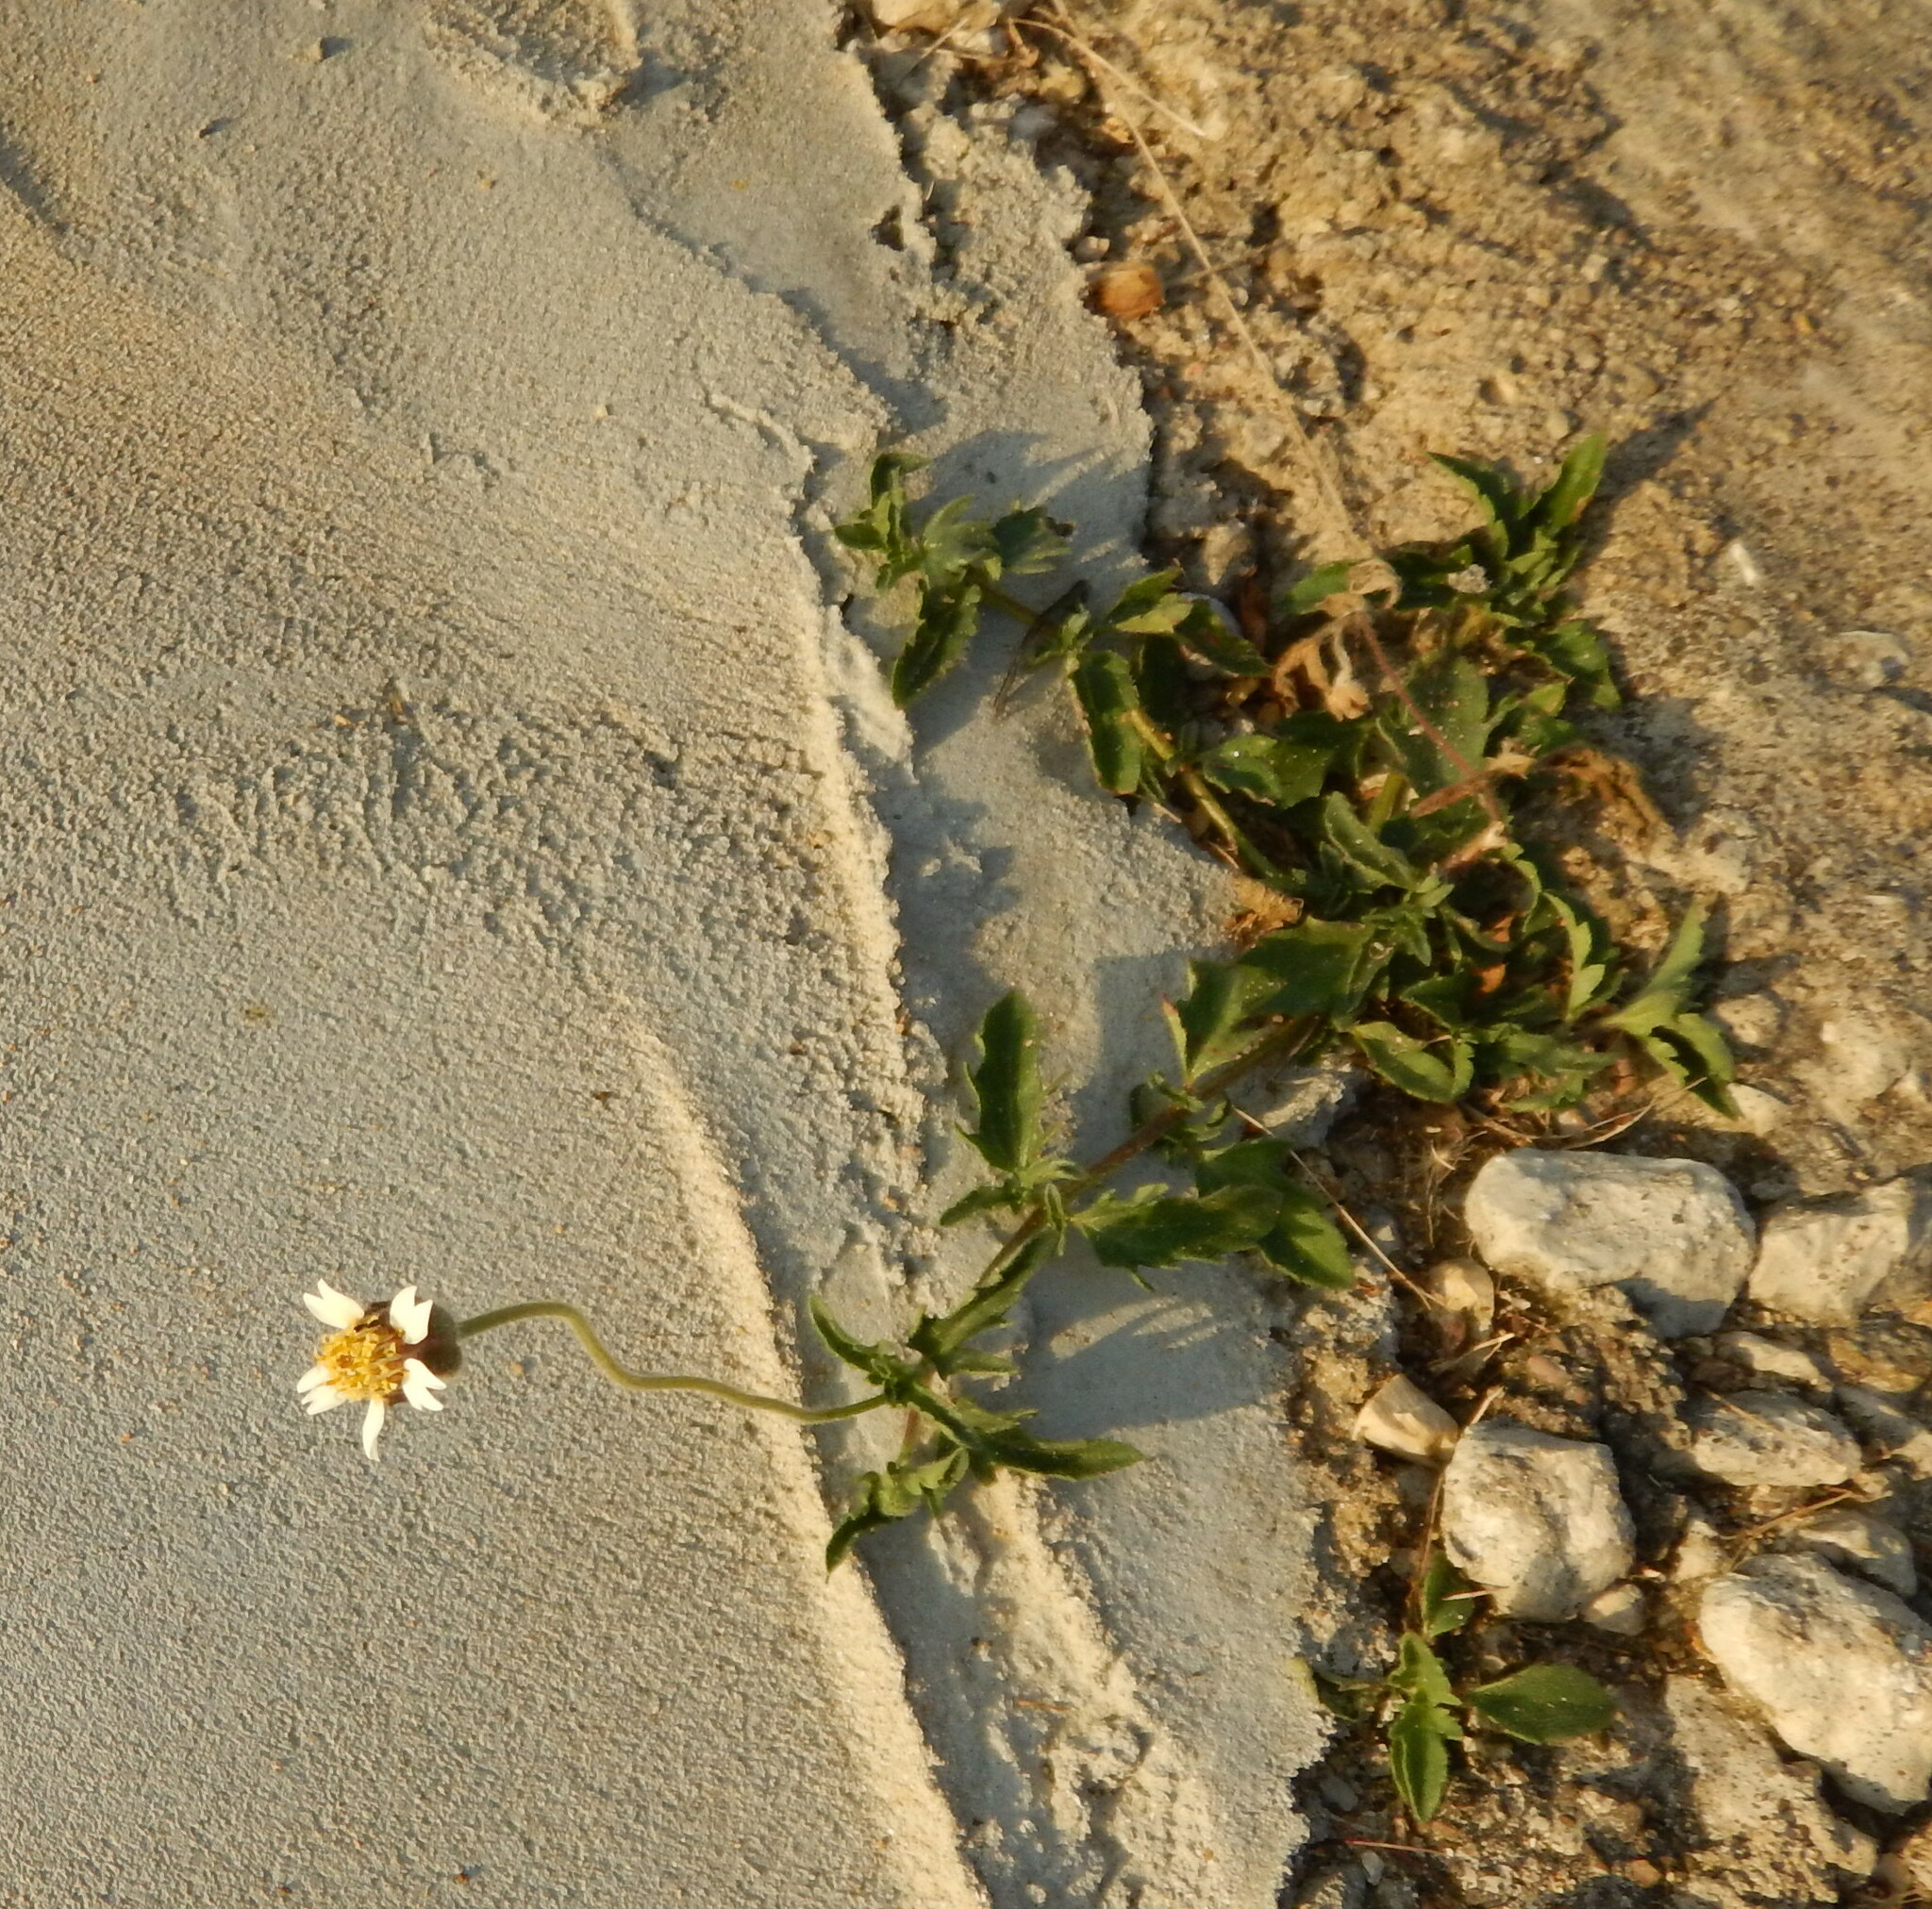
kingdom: Plantae
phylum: Tracheophyta
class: Magnoliopsida
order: Asterales
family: Asteraceae
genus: Tridax
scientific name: Tridax procumbens
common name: Coatbuttons
